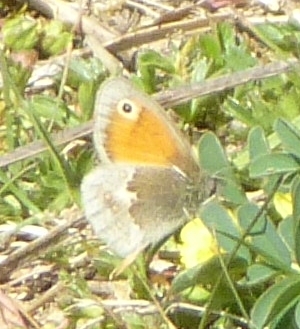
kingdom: Animalia
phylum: Arthropoda
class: Insecta
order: Lepidoptera
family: Nymphalidae
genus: Coenonympha
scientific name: Coenonympha pamphilus
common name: Small heath
